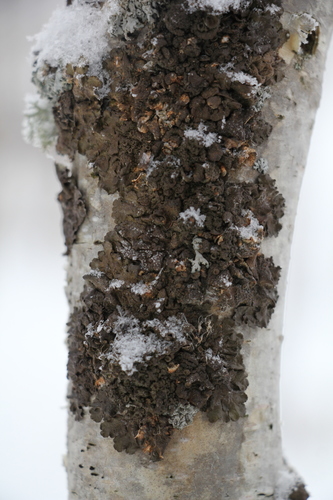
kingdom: Fungi
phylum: Ascomycota
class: Lecanoromycetes
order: Lecanorales
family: Parmeliaceae
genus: Melanohalea
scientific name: Melanohalea olivacea
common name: Spotted camouflage lichen
